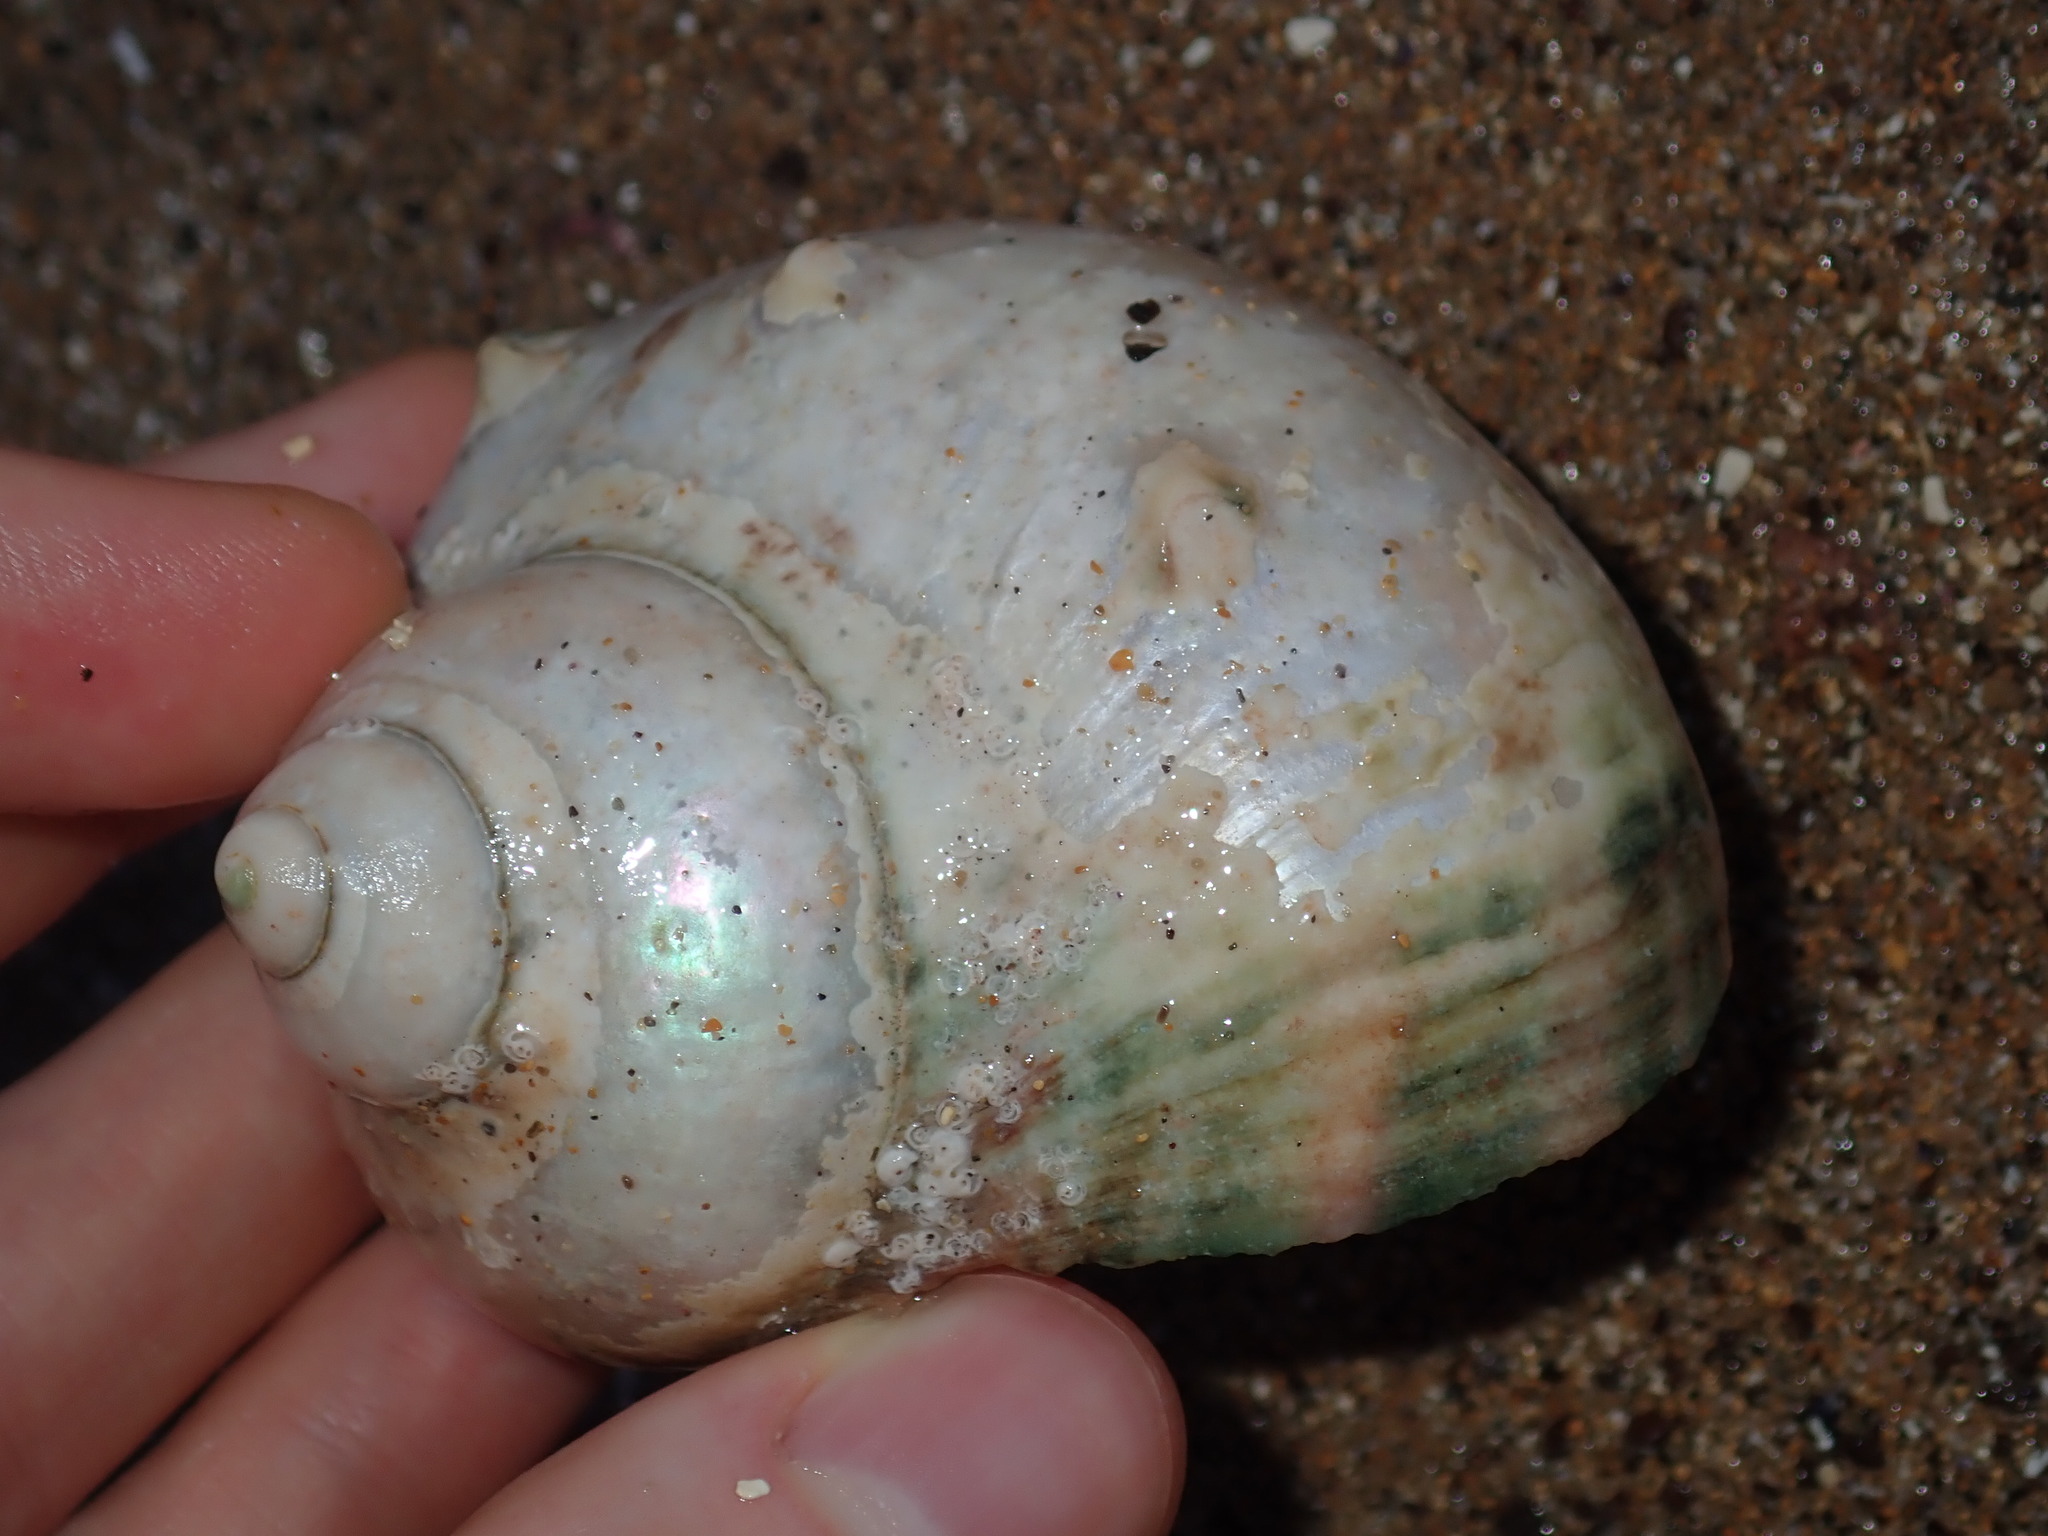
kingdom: Animalia
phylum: Mollusca
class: Gastropoda
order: Trochida
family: Turbinidae
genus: Turbo
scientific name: Turbo militaris
